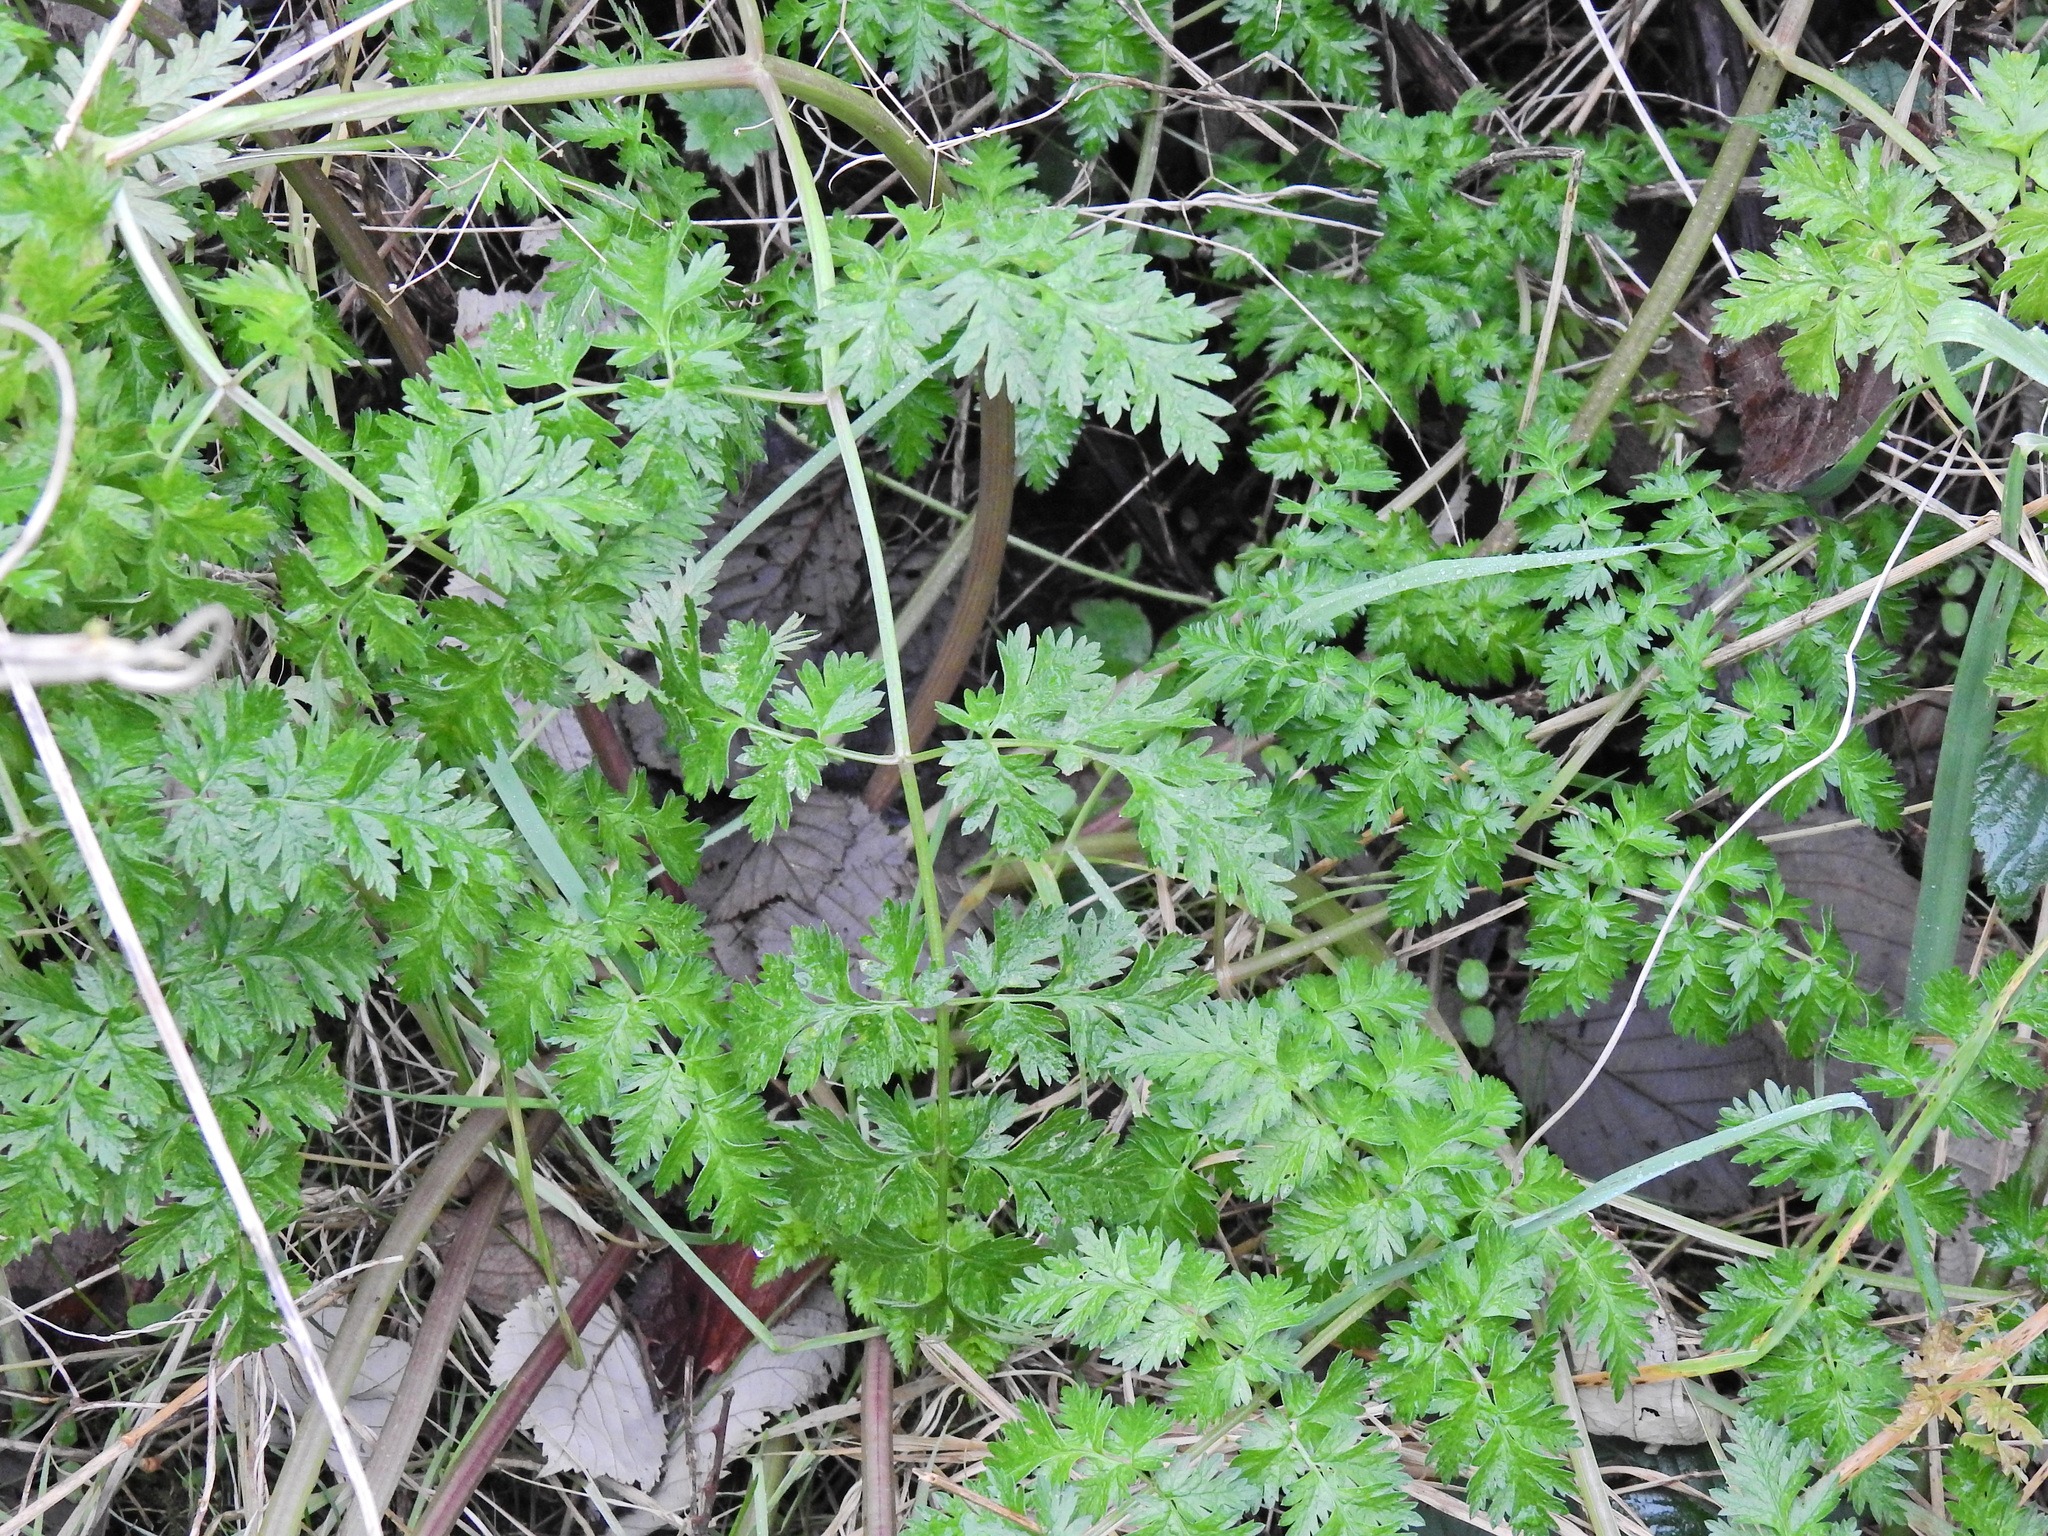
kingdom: Plantae
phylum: Tracheophyta
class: Magnoliopsida
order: Apiales
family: Apiaceae
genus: Anthriscus
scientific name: Anthriscus sylvestris
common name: Cow parsley
